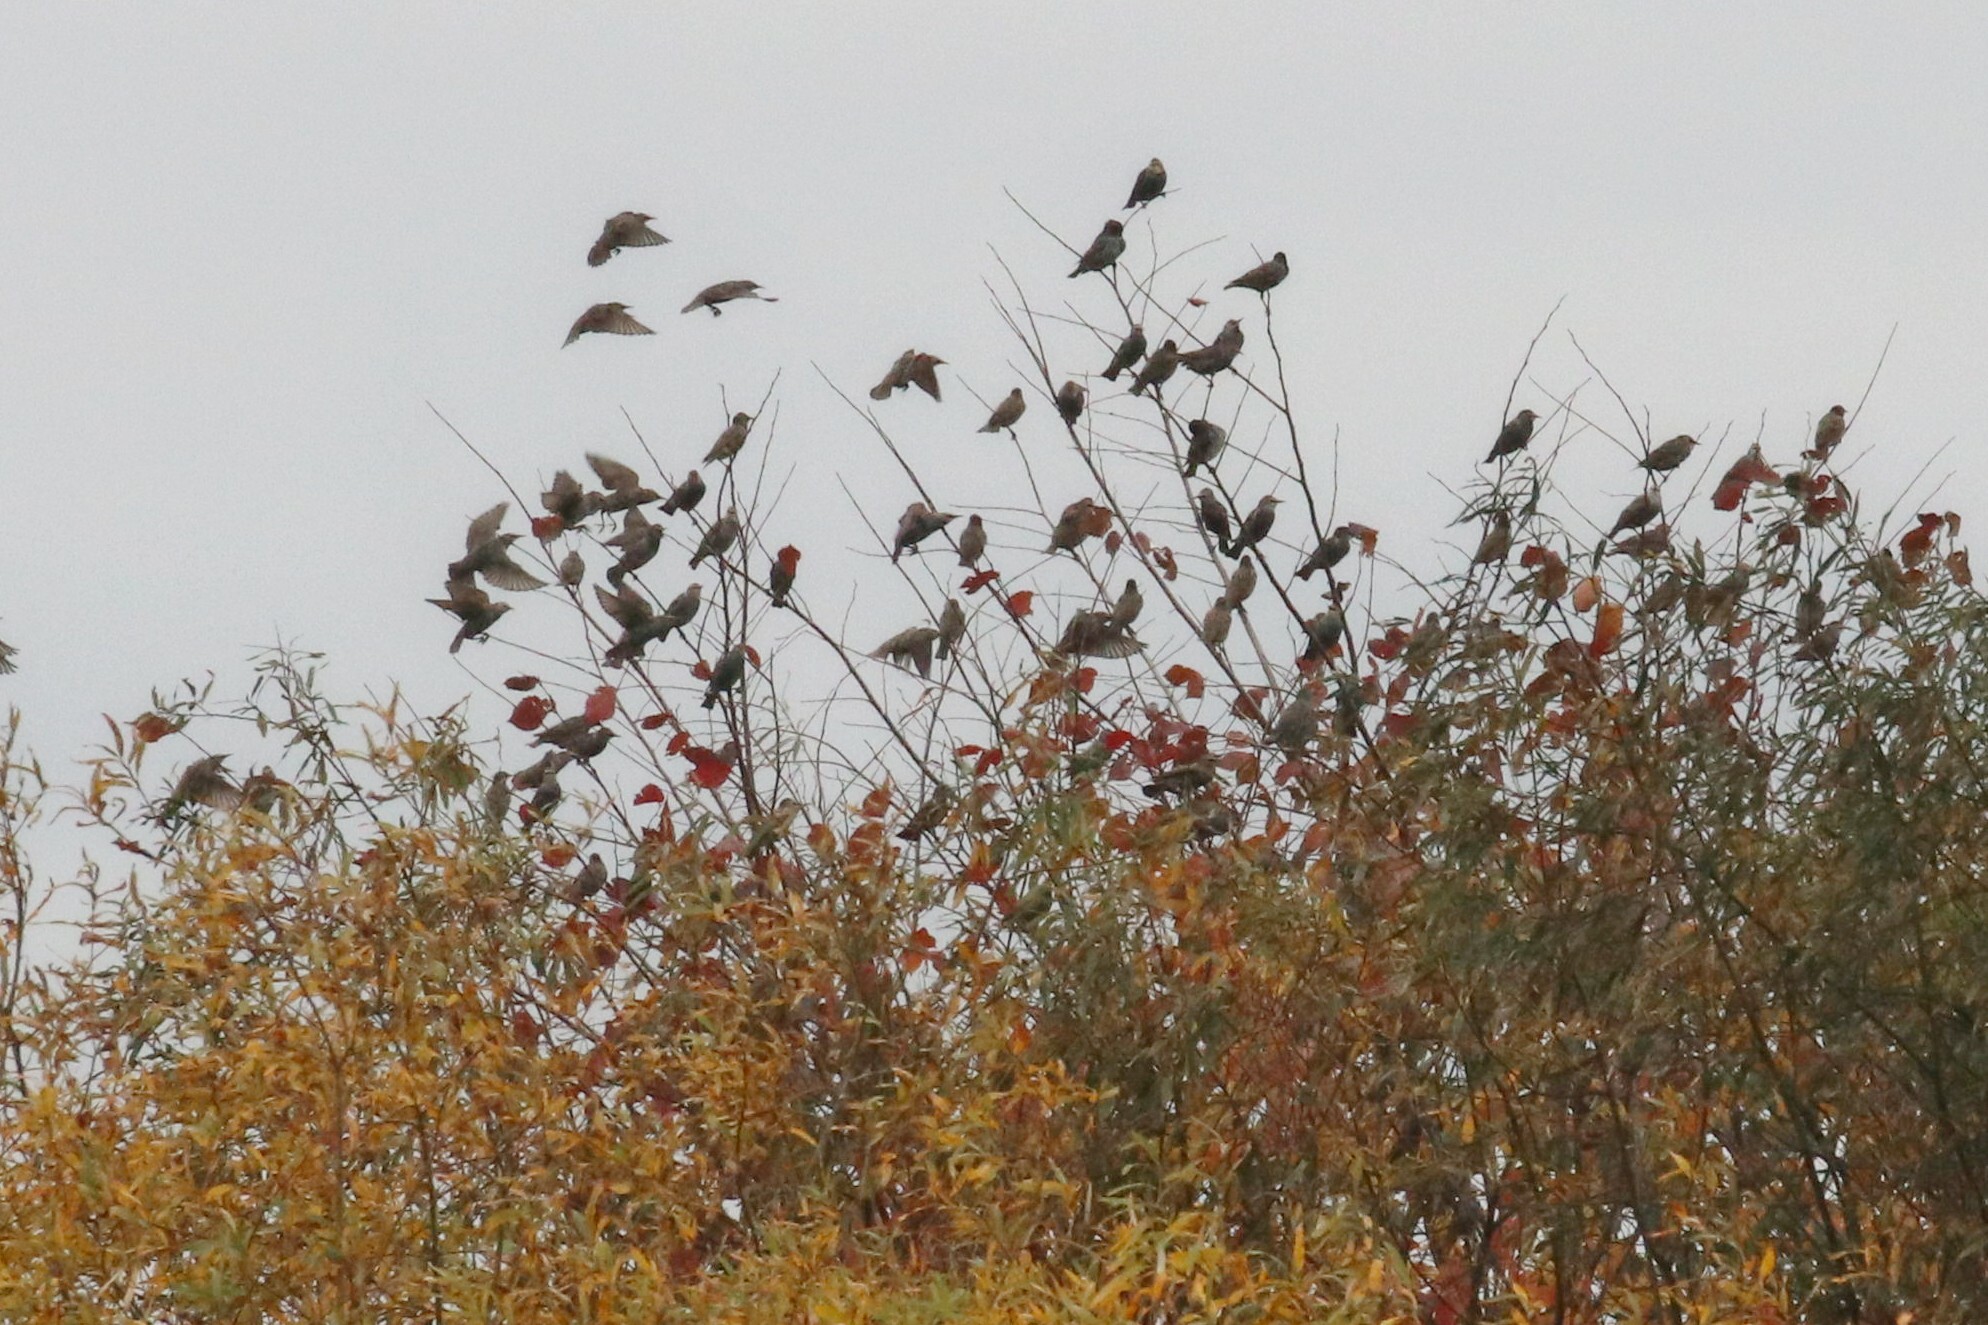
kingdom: Animalia
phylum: Chordata
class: Aves
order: Passeriformes
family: Sturnidae
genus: Sturnus
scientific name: Sturnus vulgaris
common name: Common starling
